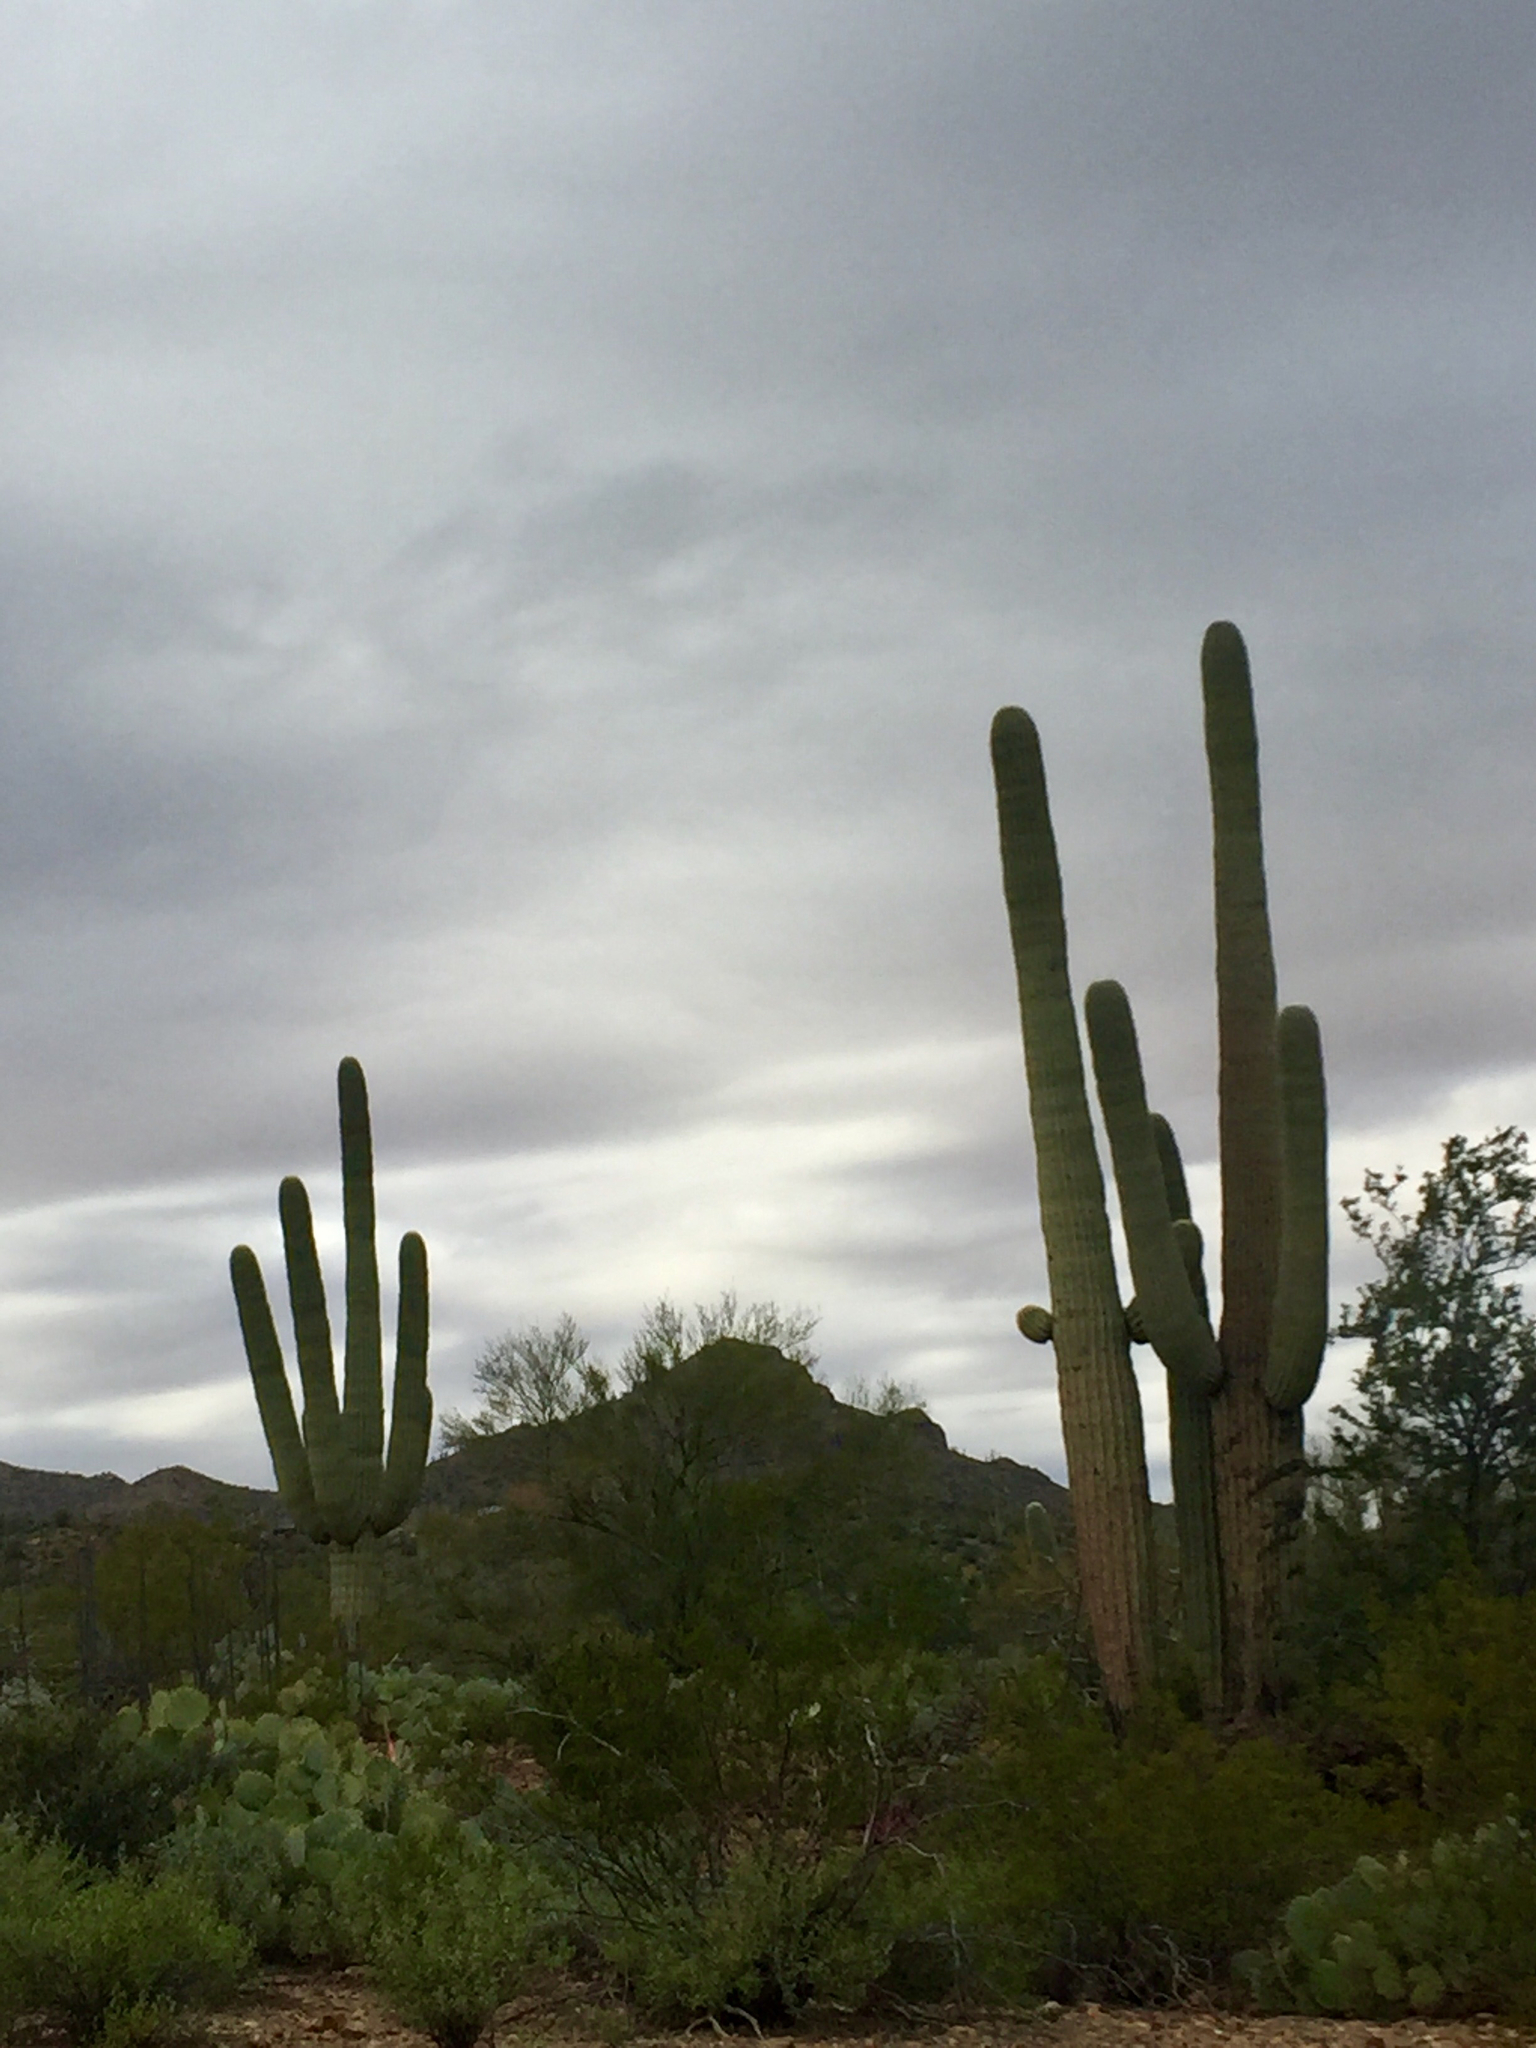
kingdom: Plantae
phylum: Tracheophyta
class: Magnoliopsida
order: Caryophyllales
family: Cactaceae
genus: Carnegiea
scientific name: Carnegiea gigantea
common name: Saguaro
